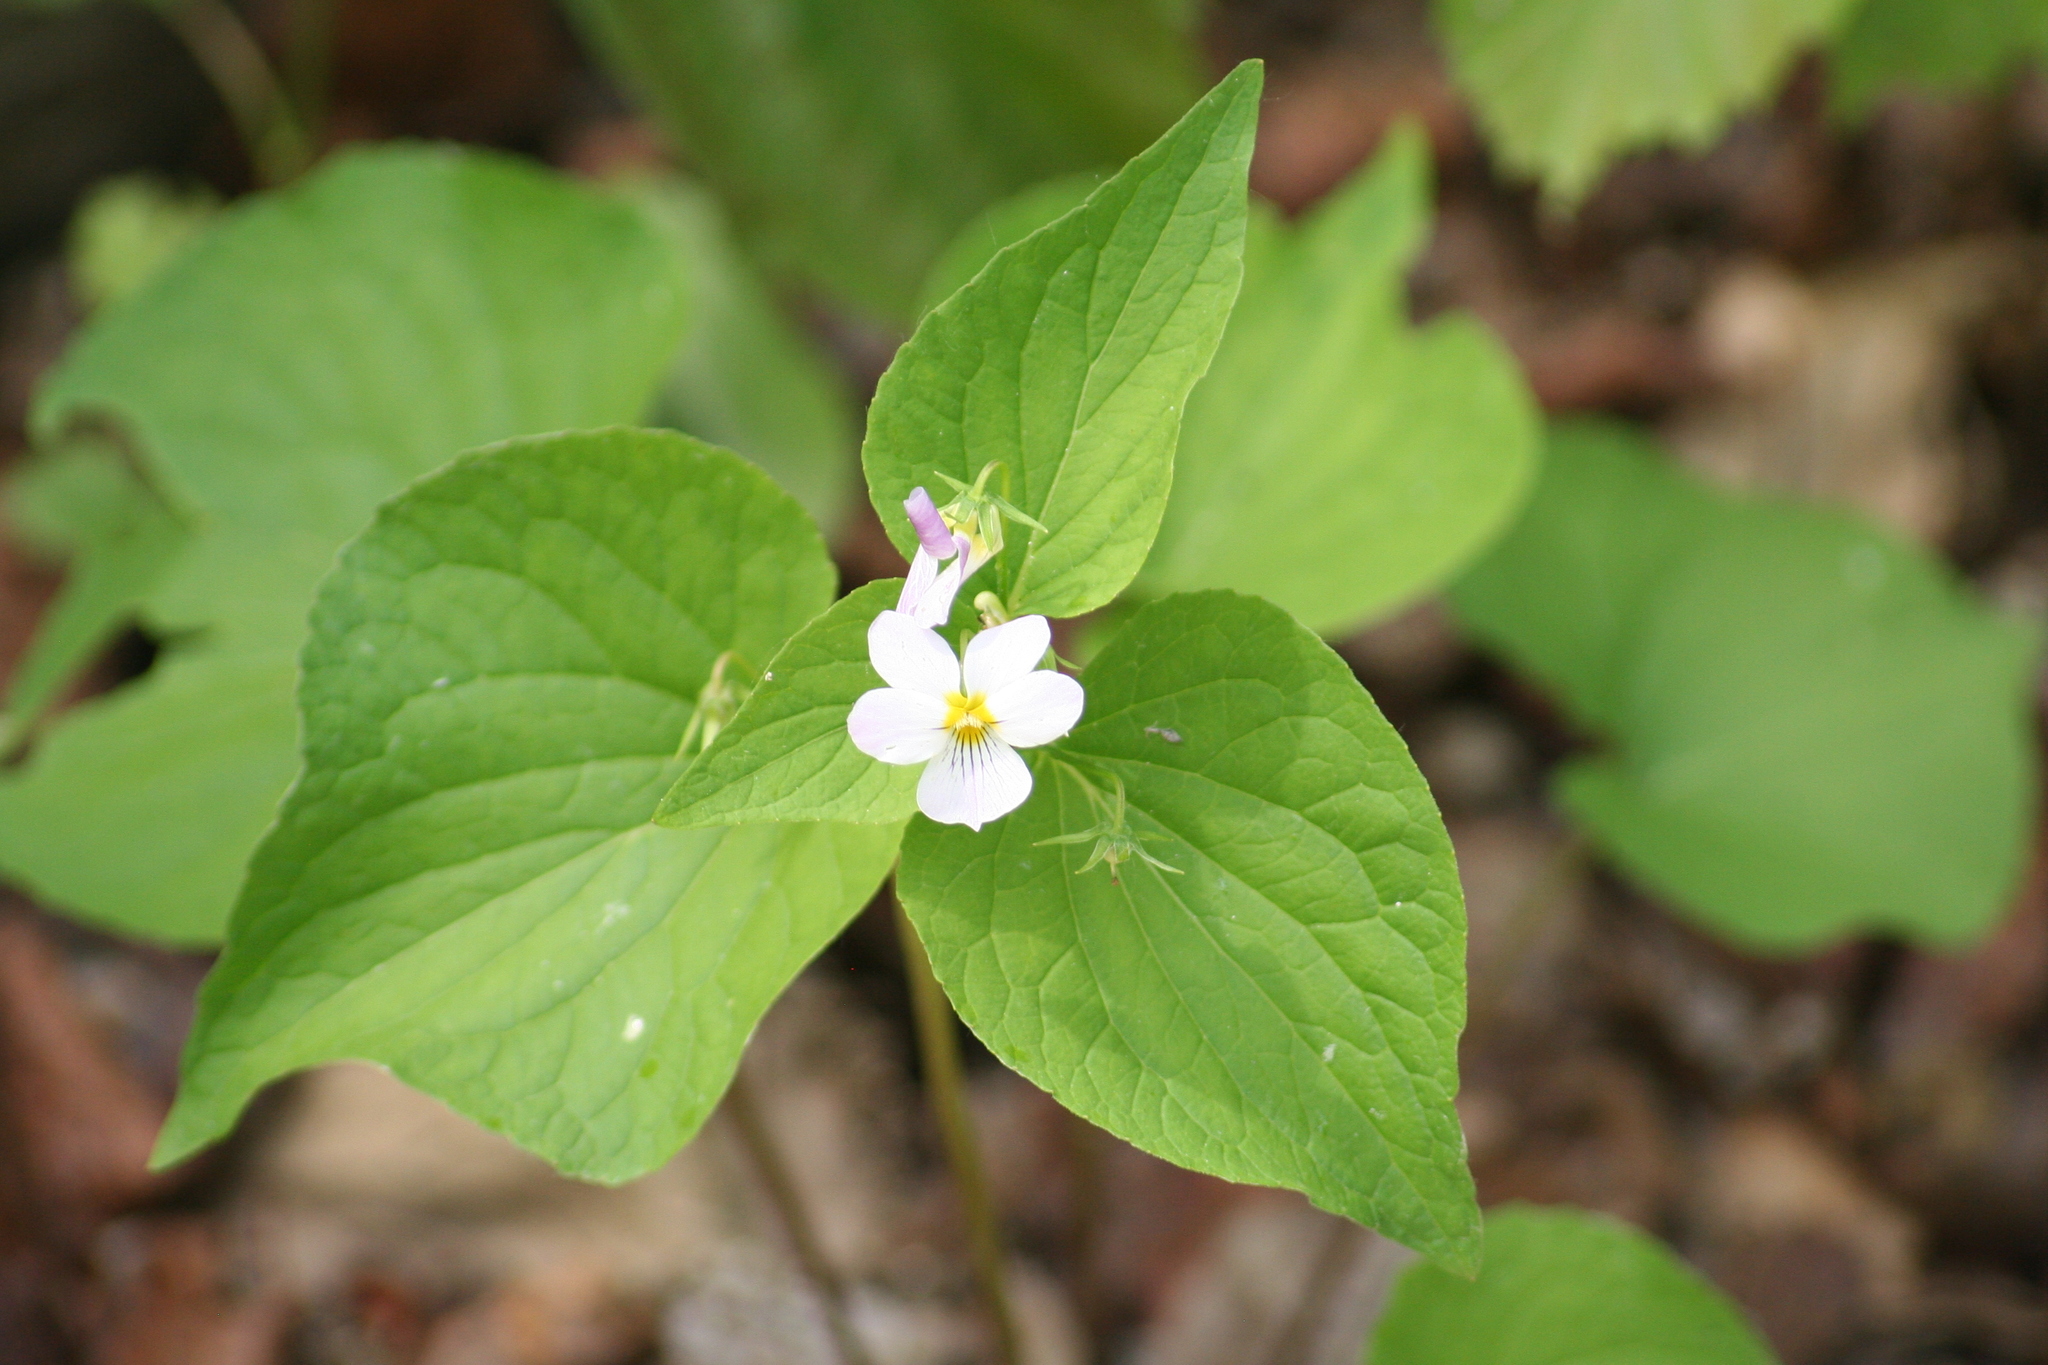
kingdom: Plantae
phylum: Tracheophyta
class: Magnoliopsida
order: Malpighiales
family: Violaceae
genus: Viola
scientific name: Viola canadensis
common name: Canada violet
